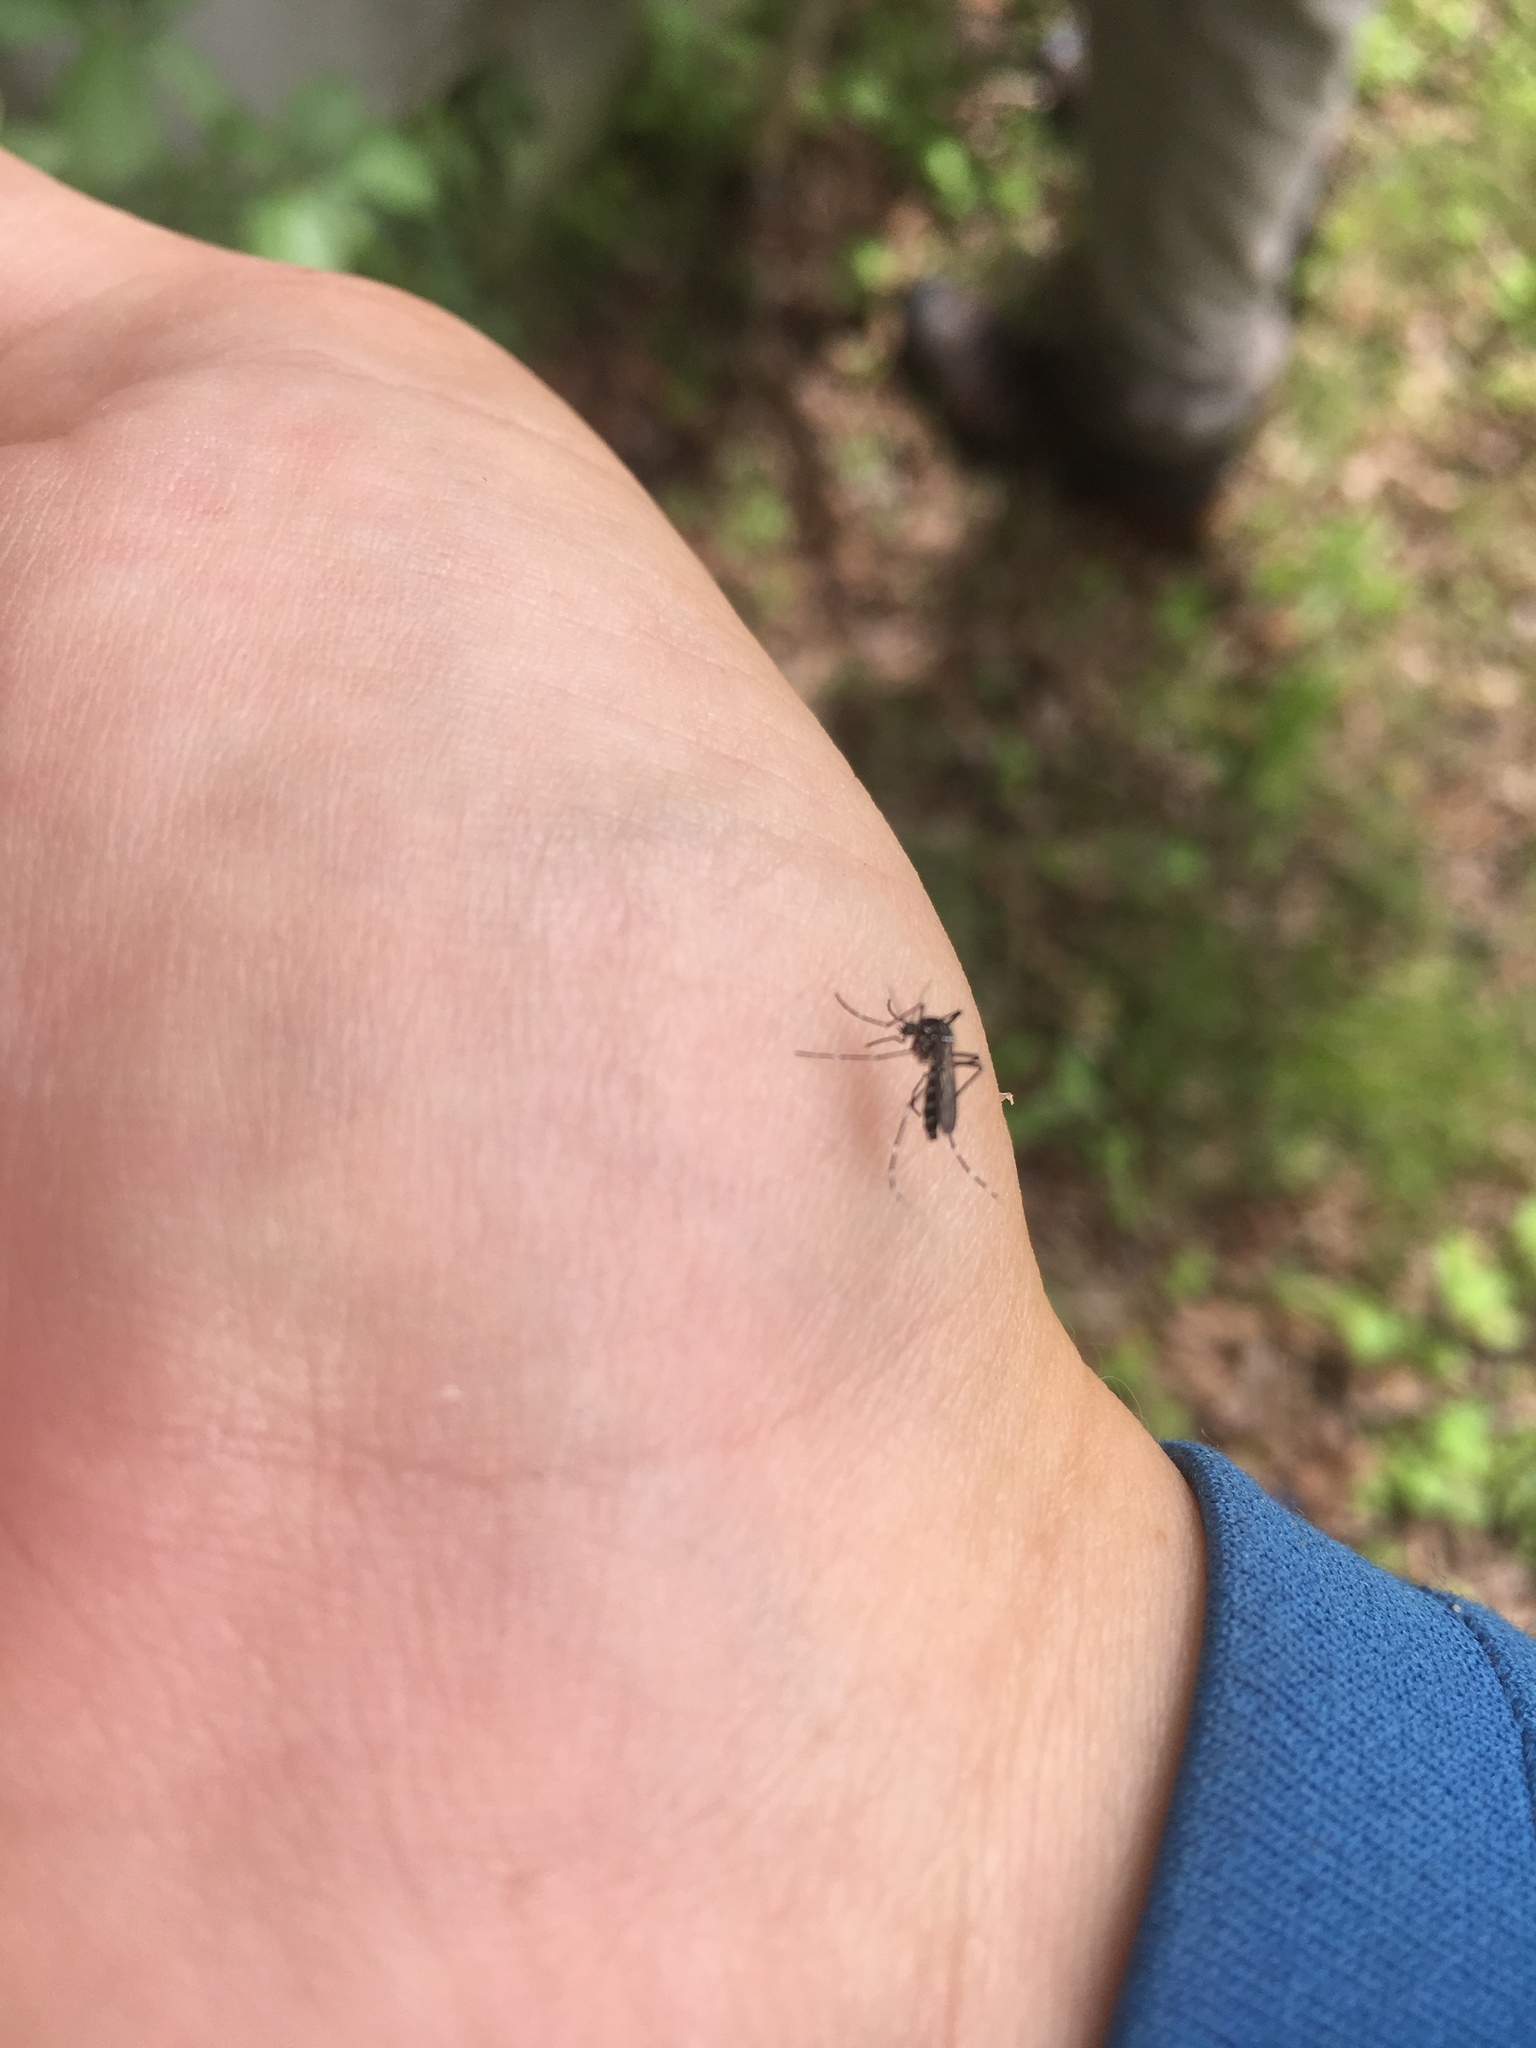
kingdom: Animalia
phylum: Arthropoda
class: Insecta
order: Diptera
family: Culicidae
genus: Aedes
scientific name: Aedes albopictus
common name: Tiger mosquito
